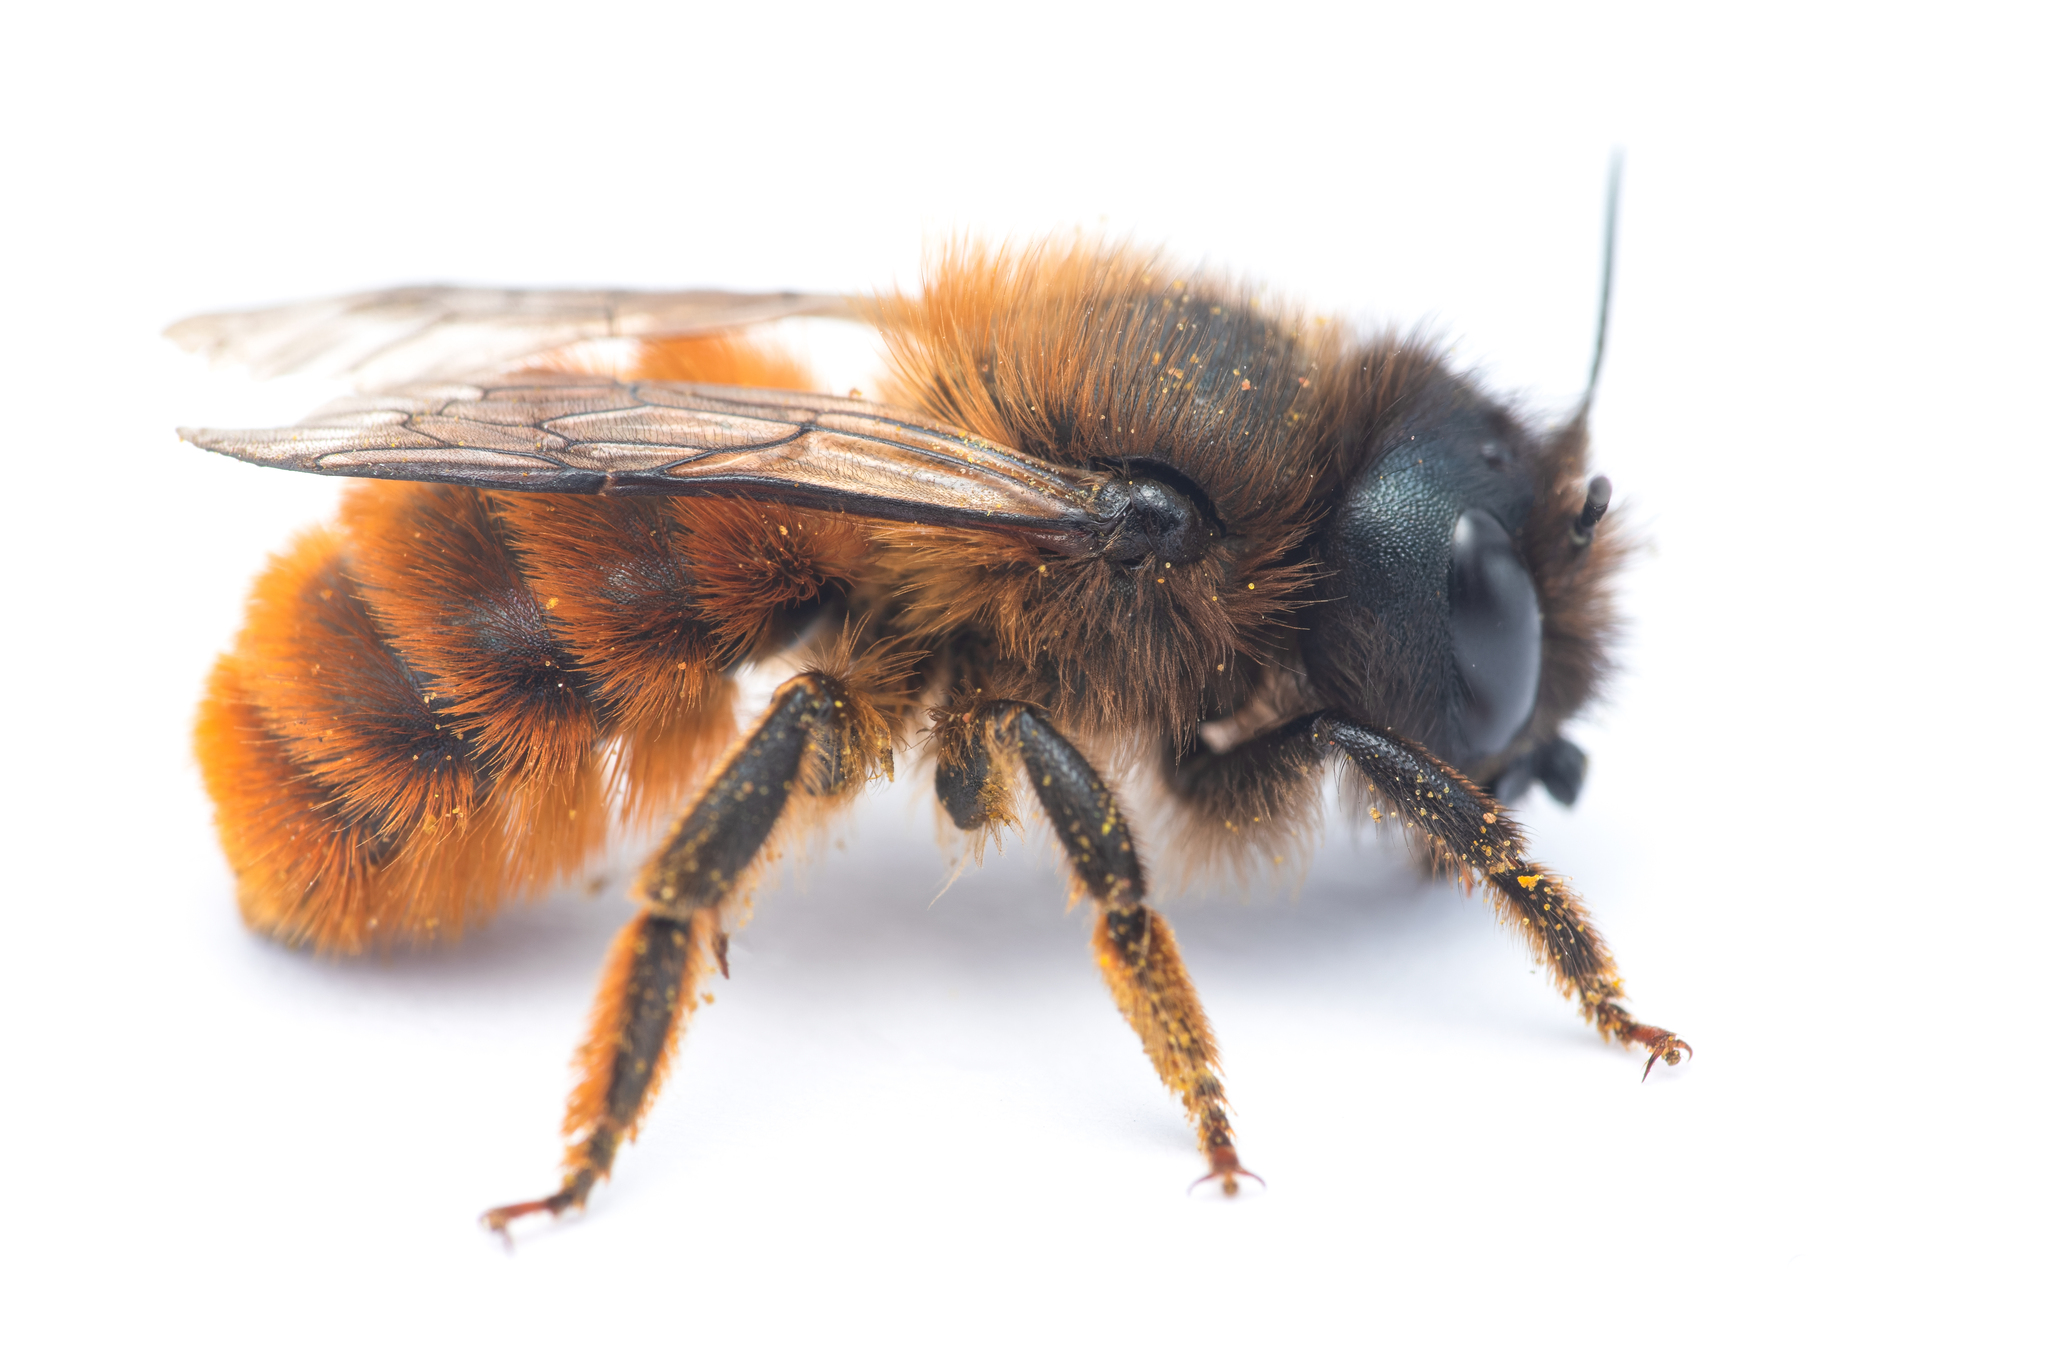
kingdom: Animalia
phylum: Arthropoda
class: Insecta
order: Hymenoptera
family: Megachilidae
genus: Osmia
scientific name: Osmia tricornis
